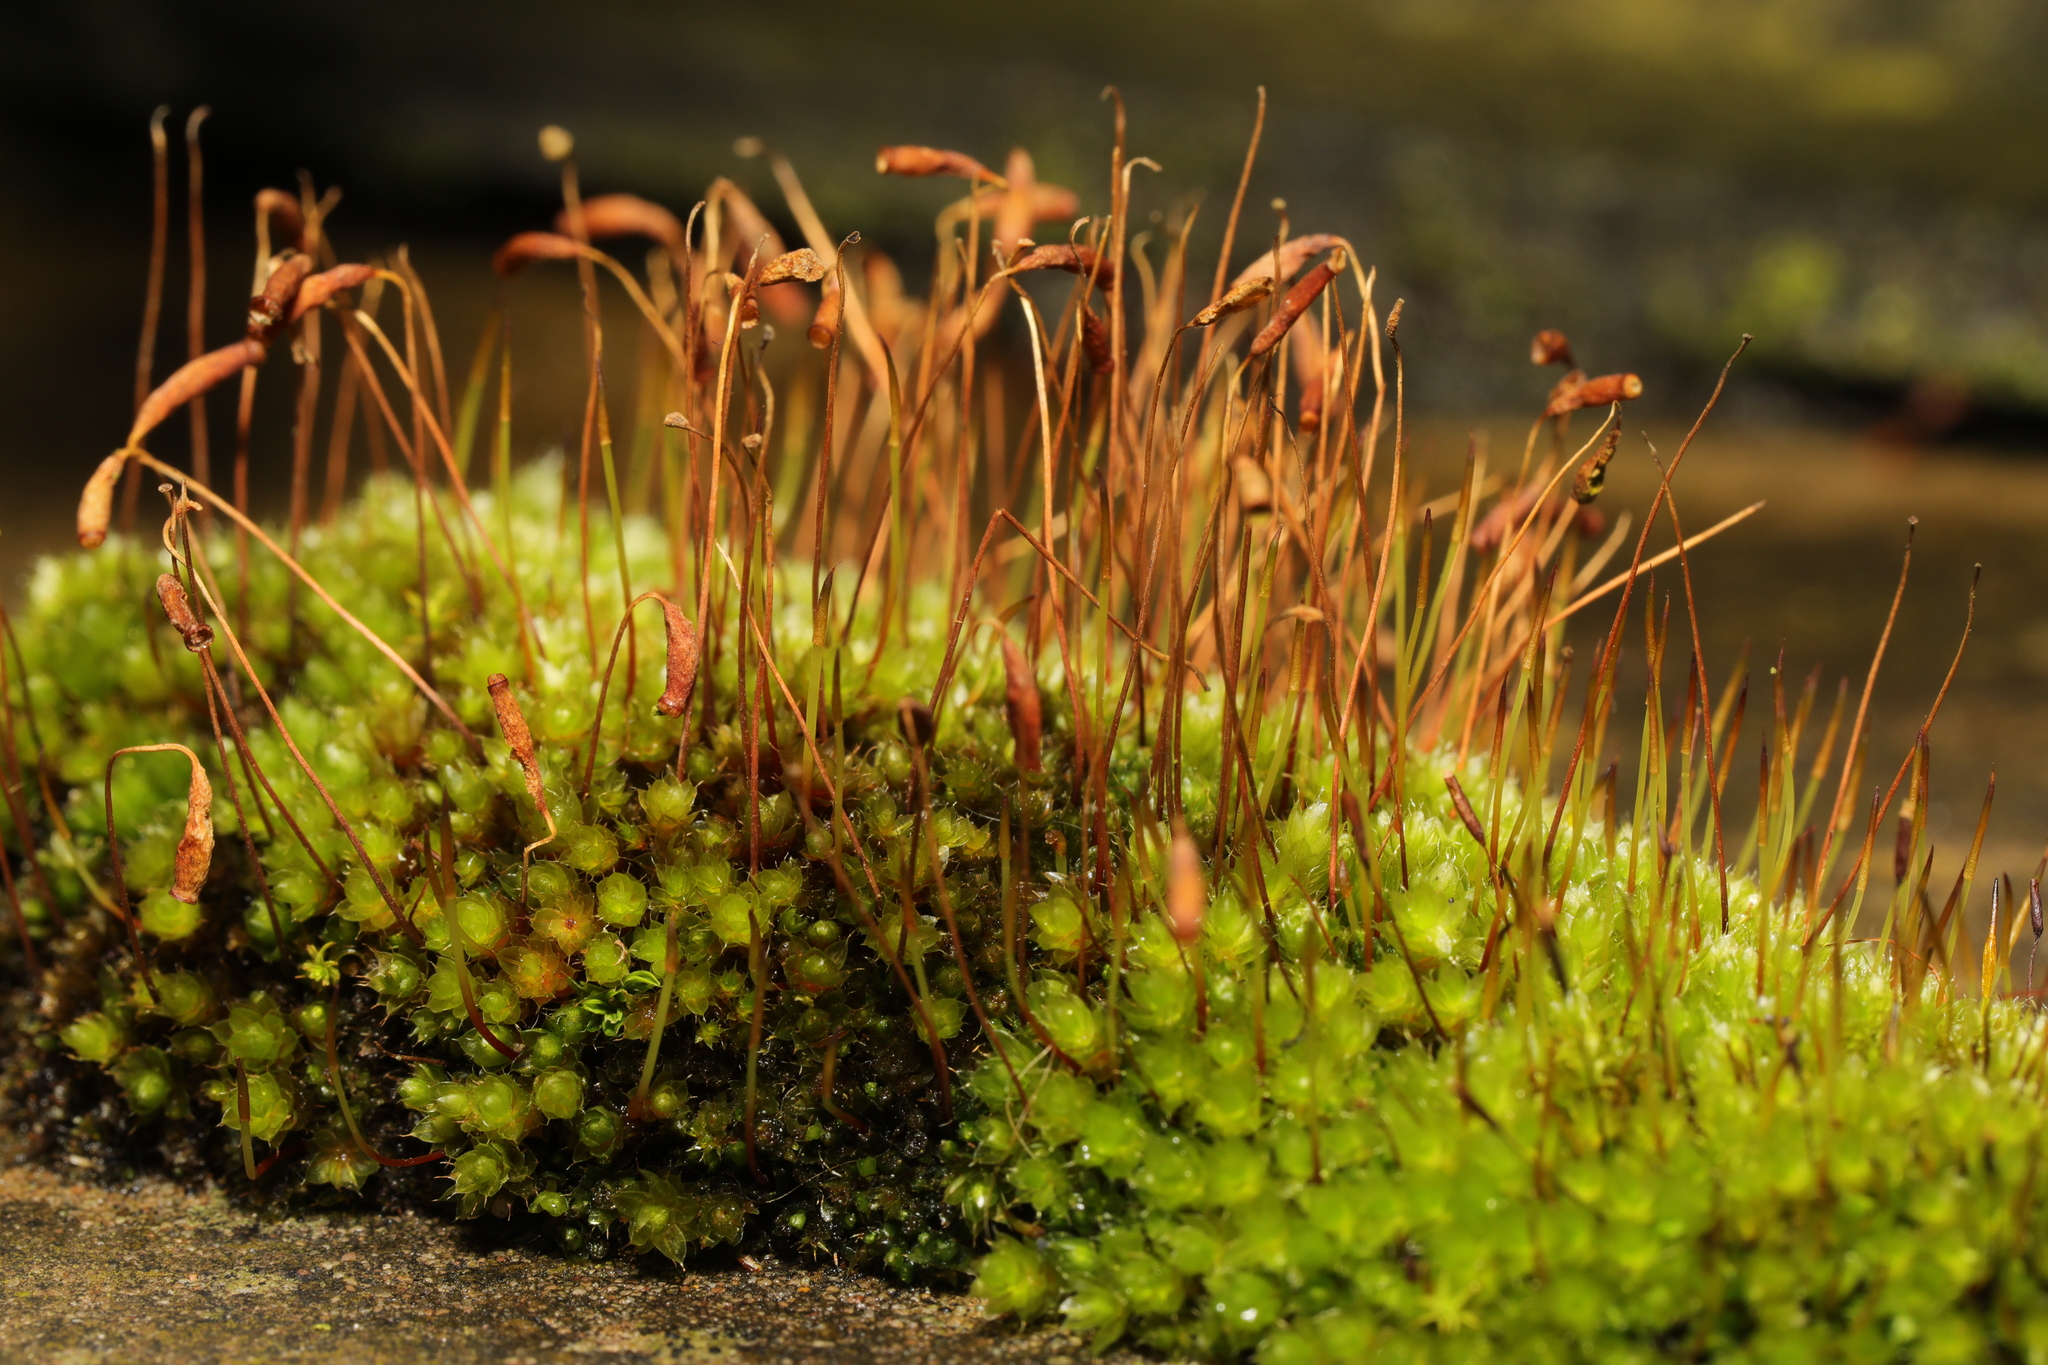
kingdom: Plantae
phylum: Bryophyta
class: Bryopsida
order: Bryales
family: Bryaceae
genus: Rosulabryum
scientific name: Rosulabryum capillare
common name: Capillary thread-moss
